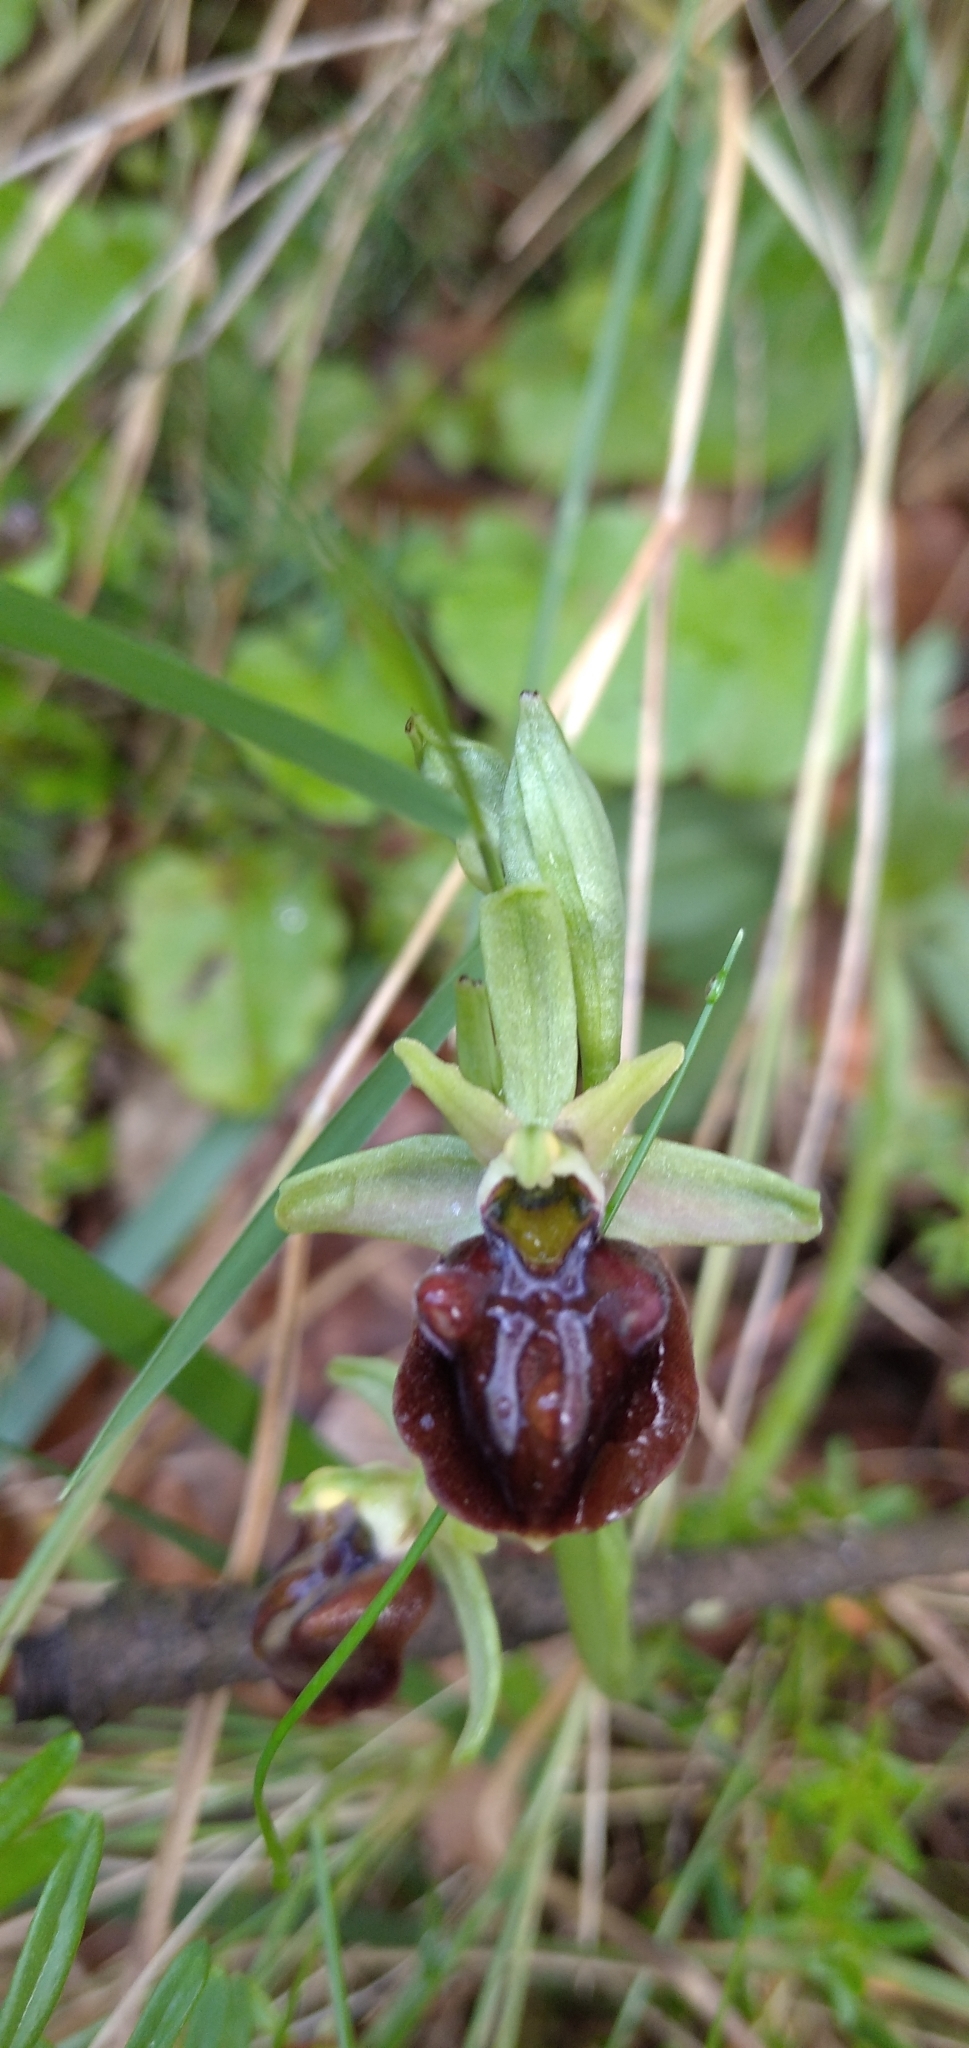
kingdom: Plantae
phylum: Tracheophyta
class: Liliopsida
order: Asparagales
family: Orchidaceae
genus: Ophrys
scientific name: Ophrys sphegodes
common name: Early spider-orchid
